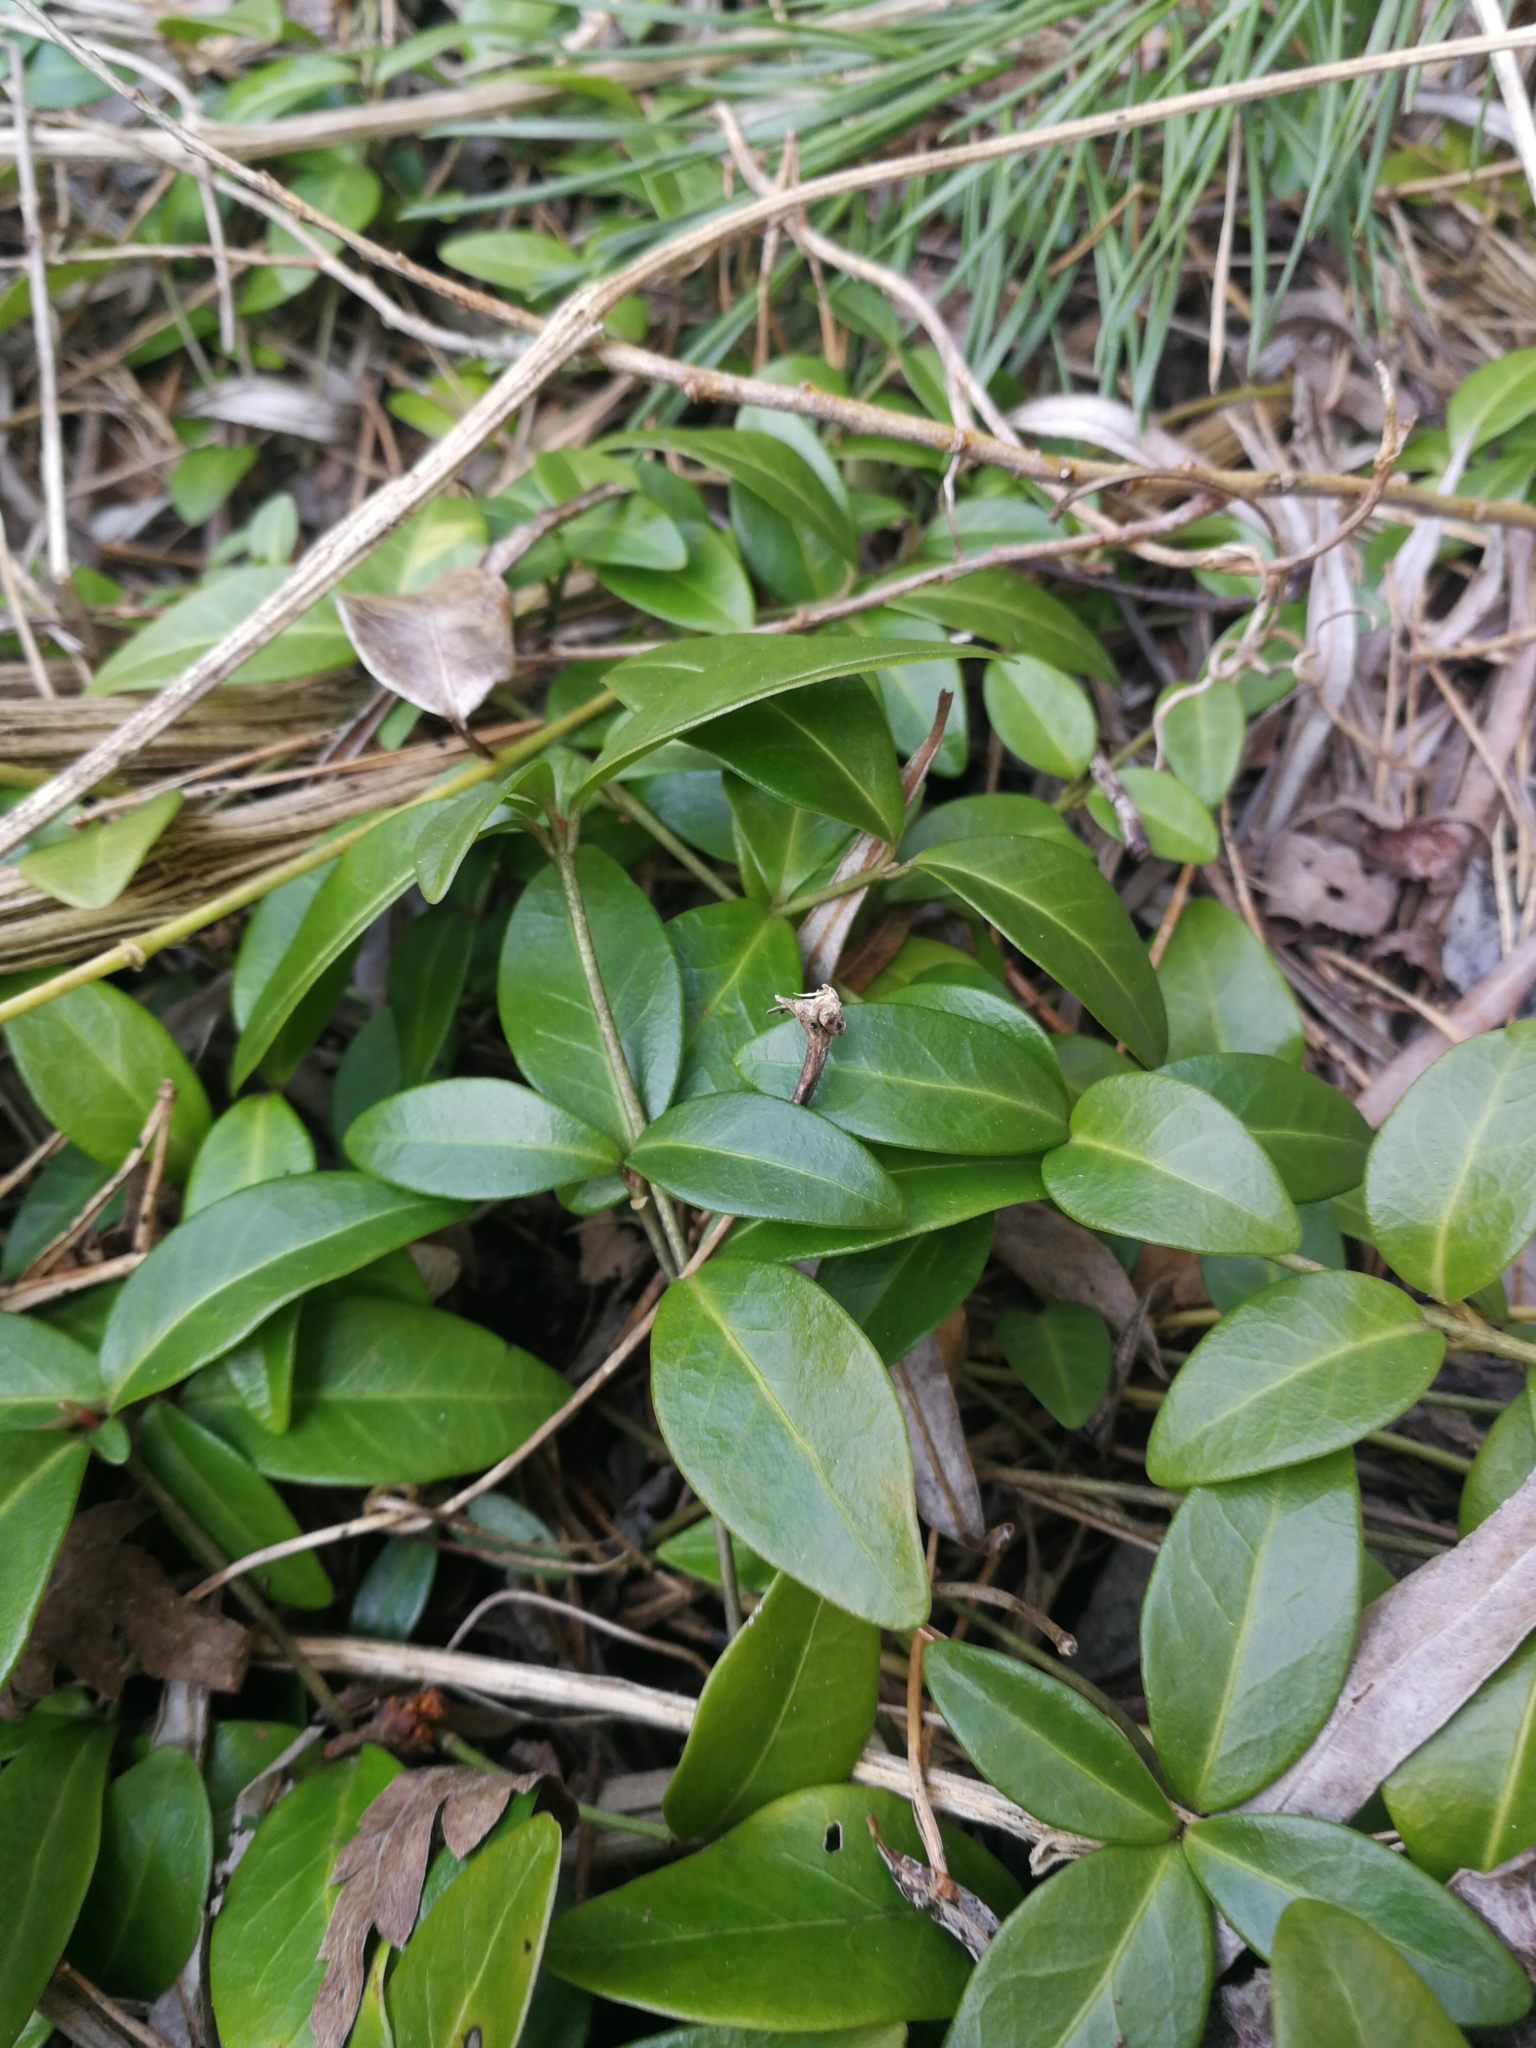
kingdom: Plantae
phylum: Tracheophyta
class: Magnoliopsida
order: Gentianales
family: Apocynaceae
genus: Vinca
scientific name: Vinca minor
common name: Lesser periwinkle
